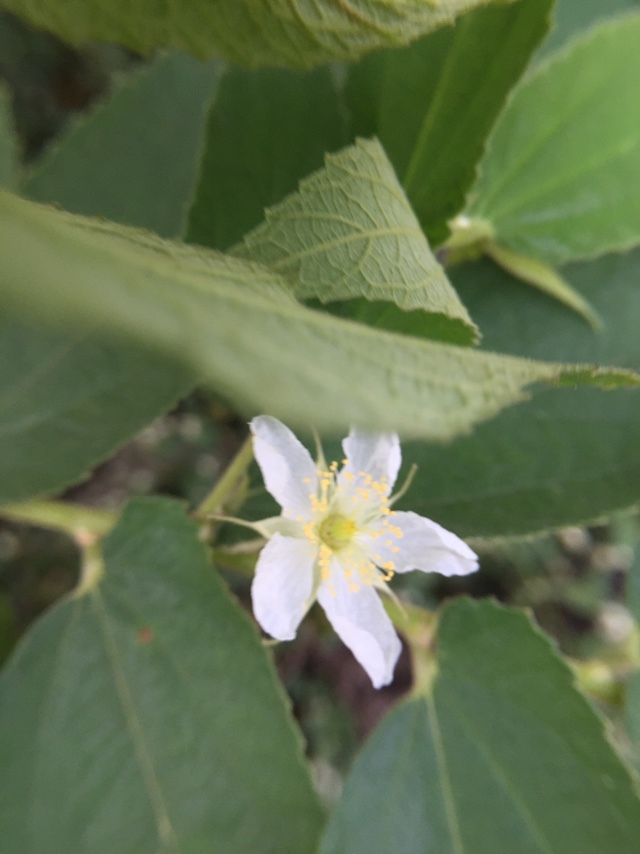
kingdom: Plantae
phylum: Tracheophyta
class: Magnoliopsida
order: Malvales
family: Muntingiaceae
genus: Muntingia
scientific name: Muntingia calabura
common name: Strawberrytree
